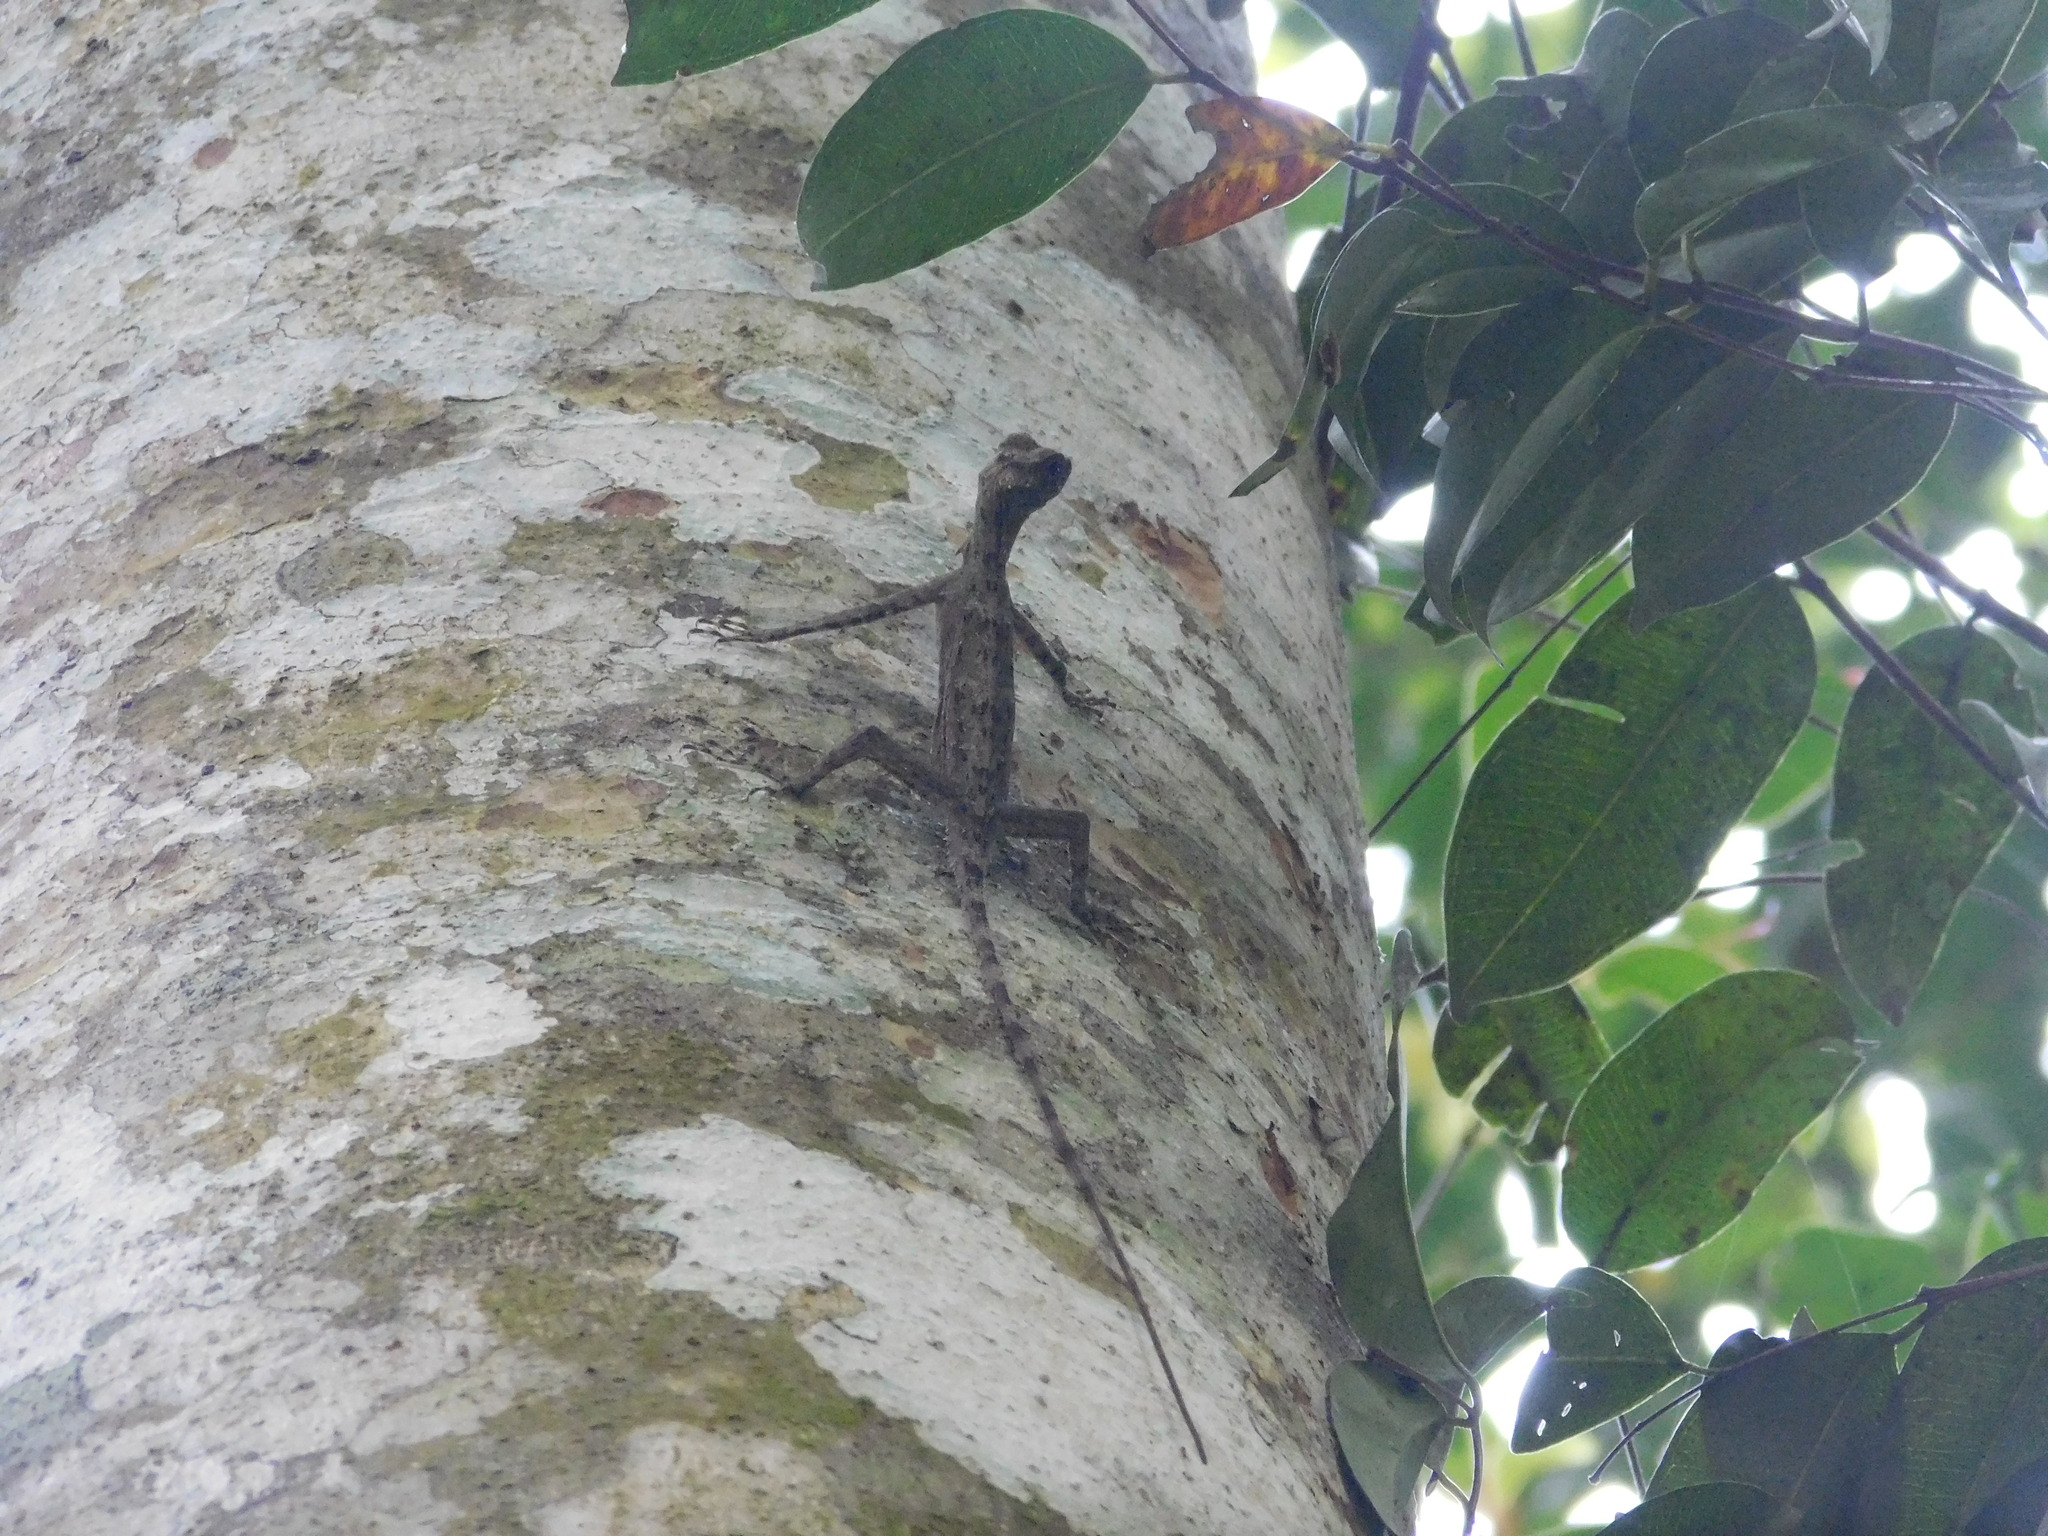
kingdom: Animalia
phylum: Chordata
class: Squamata
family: Agamidae
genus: Draco
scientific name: Draco haematopogon
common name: Red-barbed flying dragon
